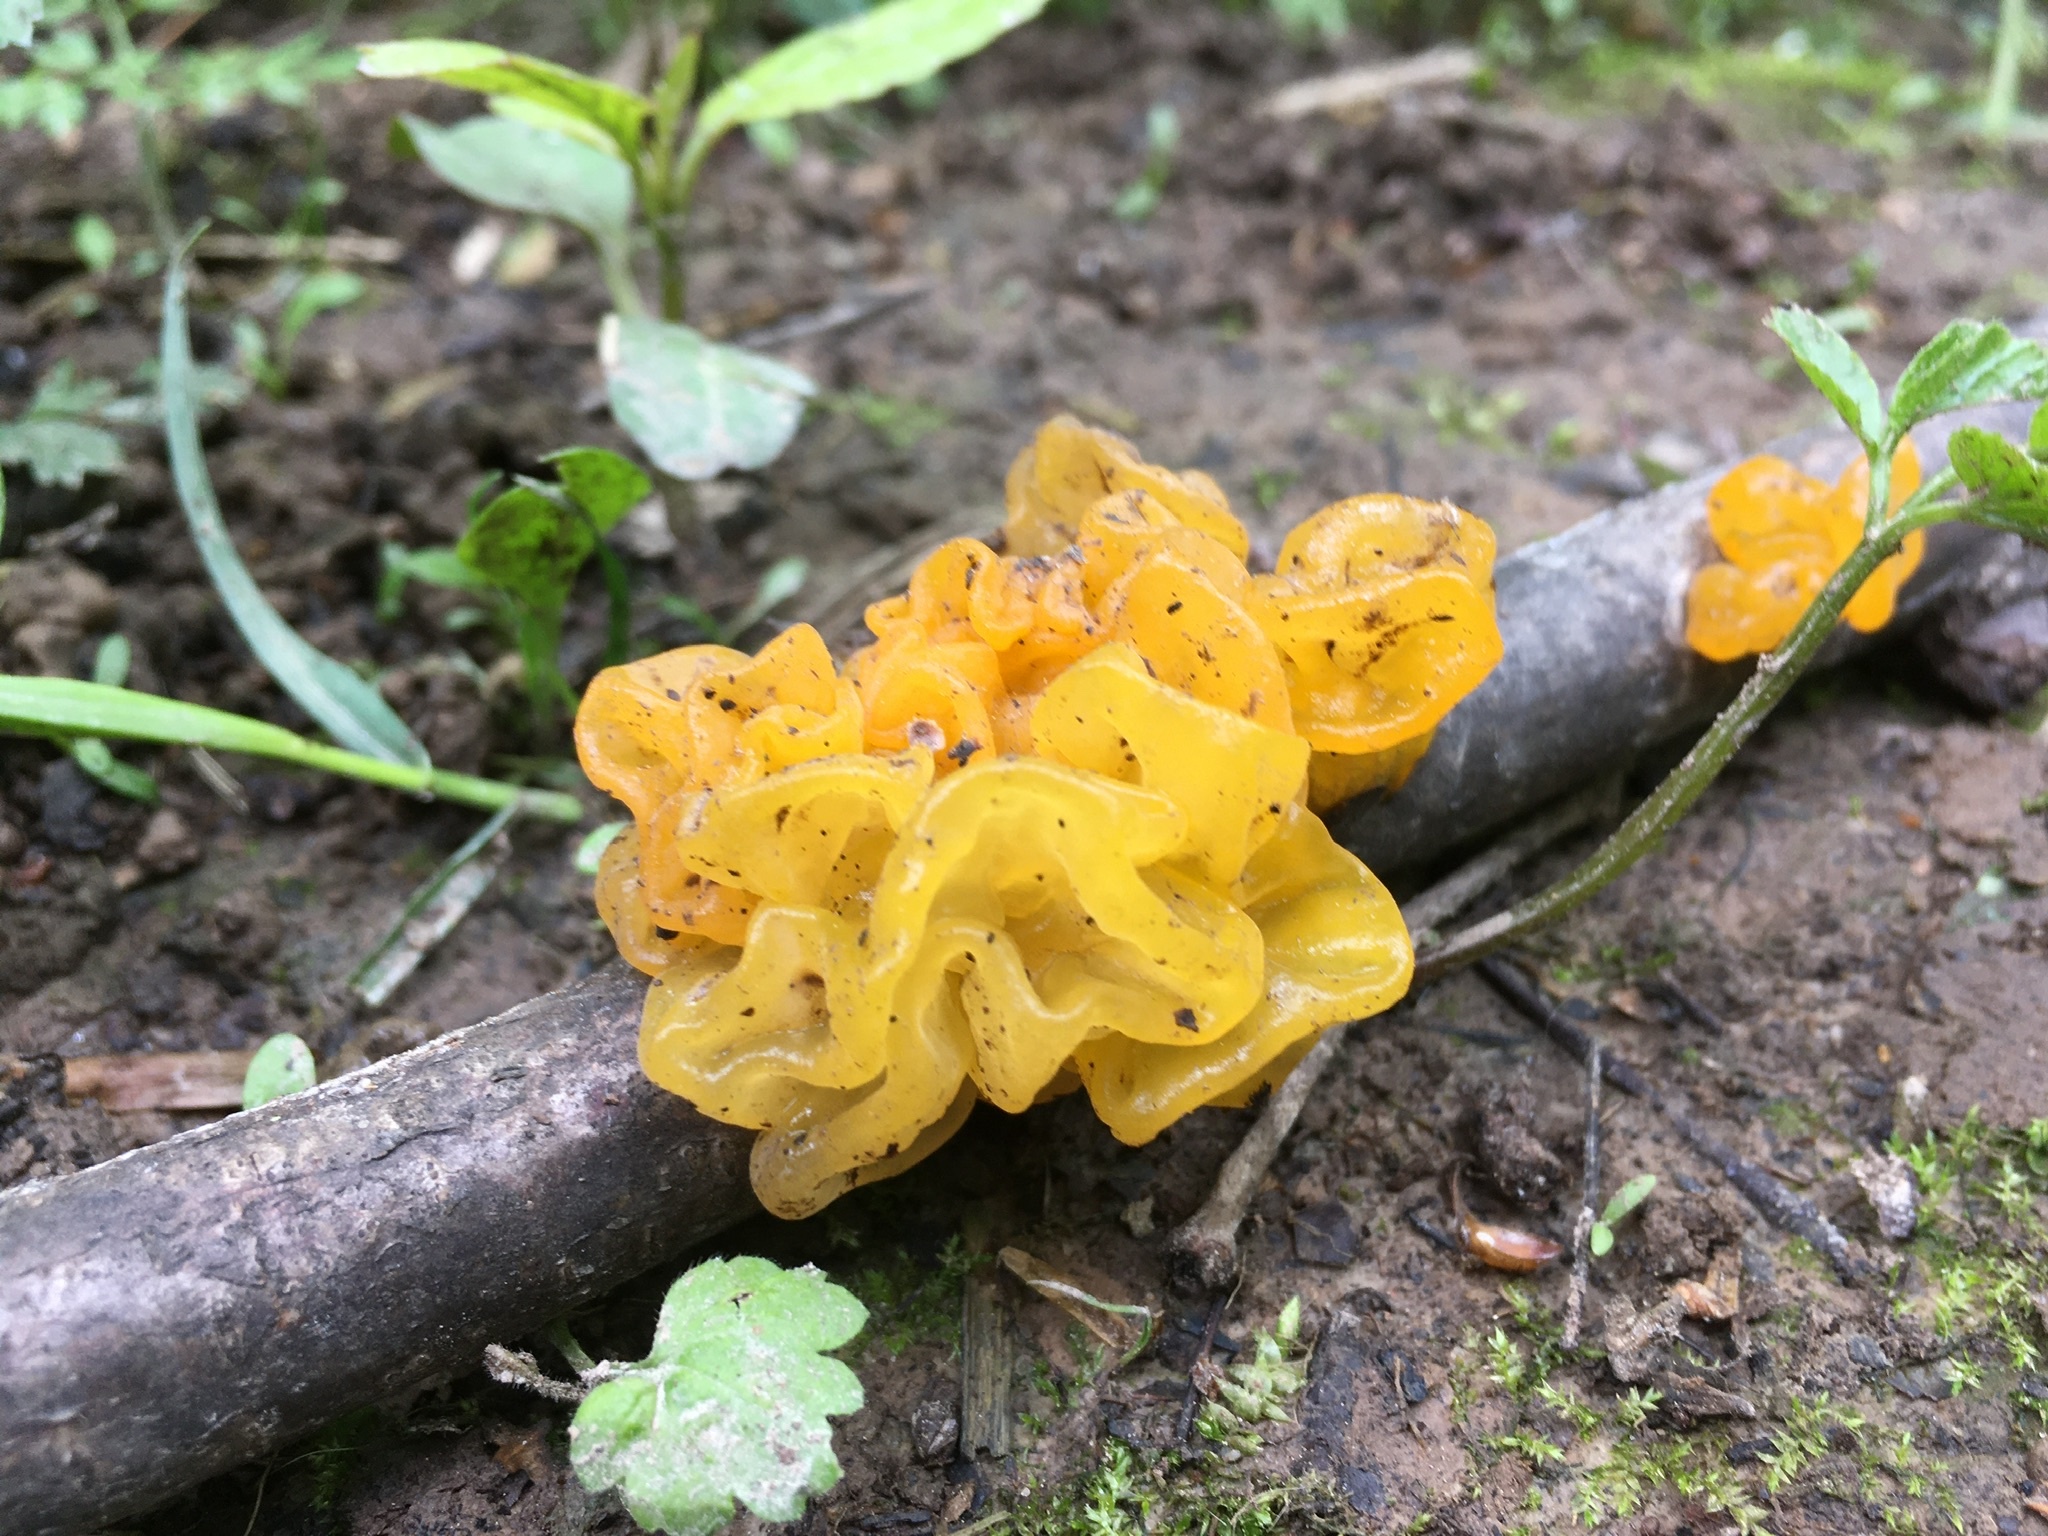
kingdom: Fungi
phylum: Basidiomycota
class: Tremellomycetes
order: Tremellales
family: Tremellaceae
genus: Tremella
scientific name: Tremella mesenterica
